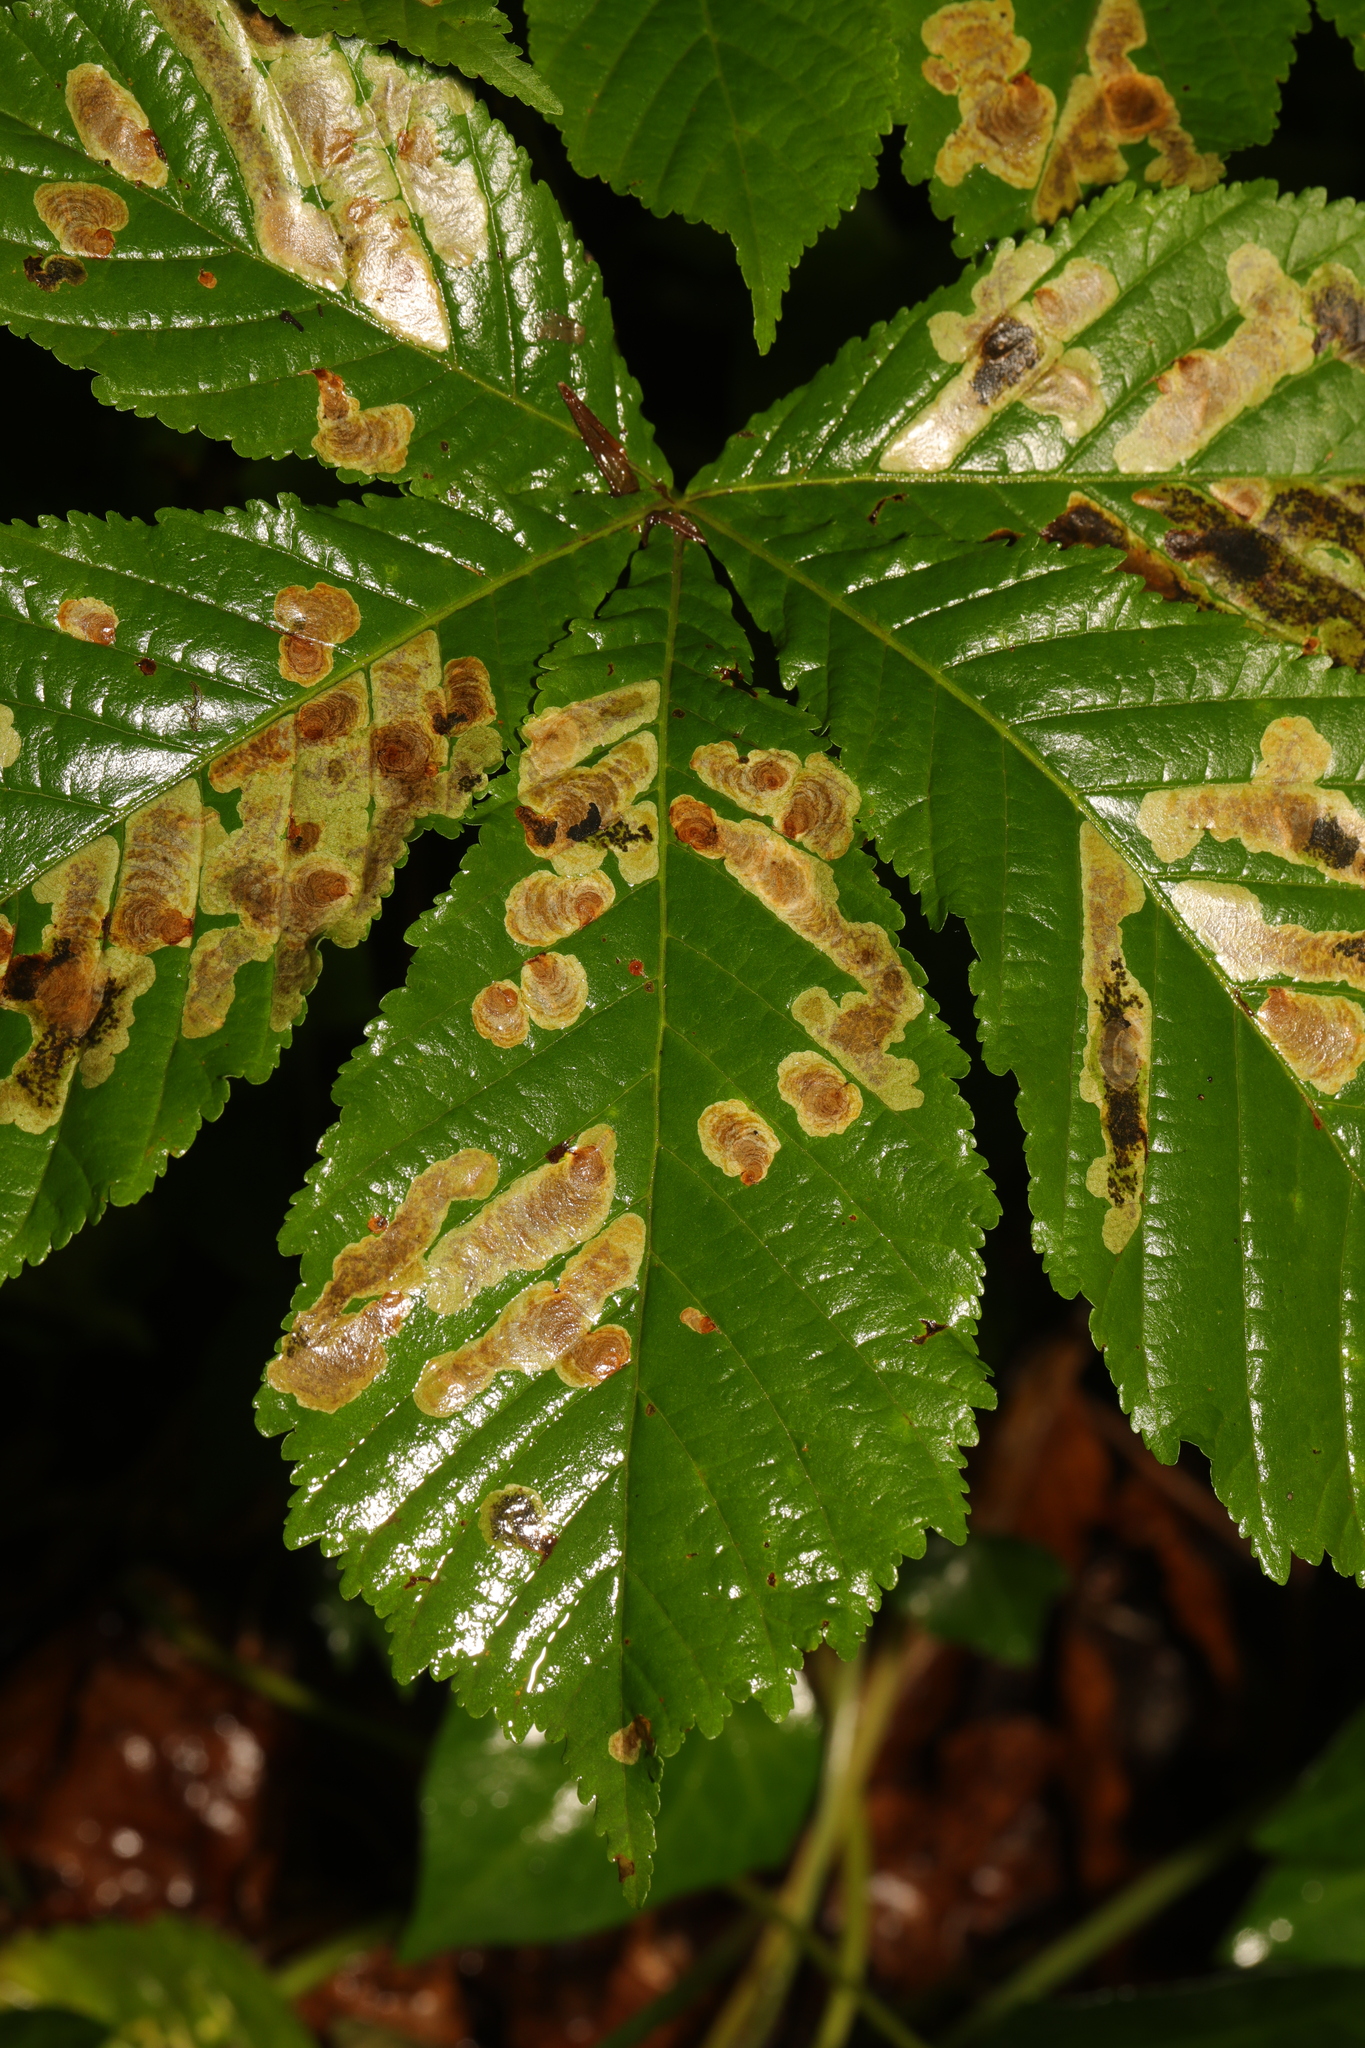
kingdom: Animalia
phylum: Arthropoda
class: Insecta
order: Lepidoptera
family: Gracillariidae
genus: Cameraria
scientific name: Cameraria ohridella
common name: Horse-chestnut leaf-miner
